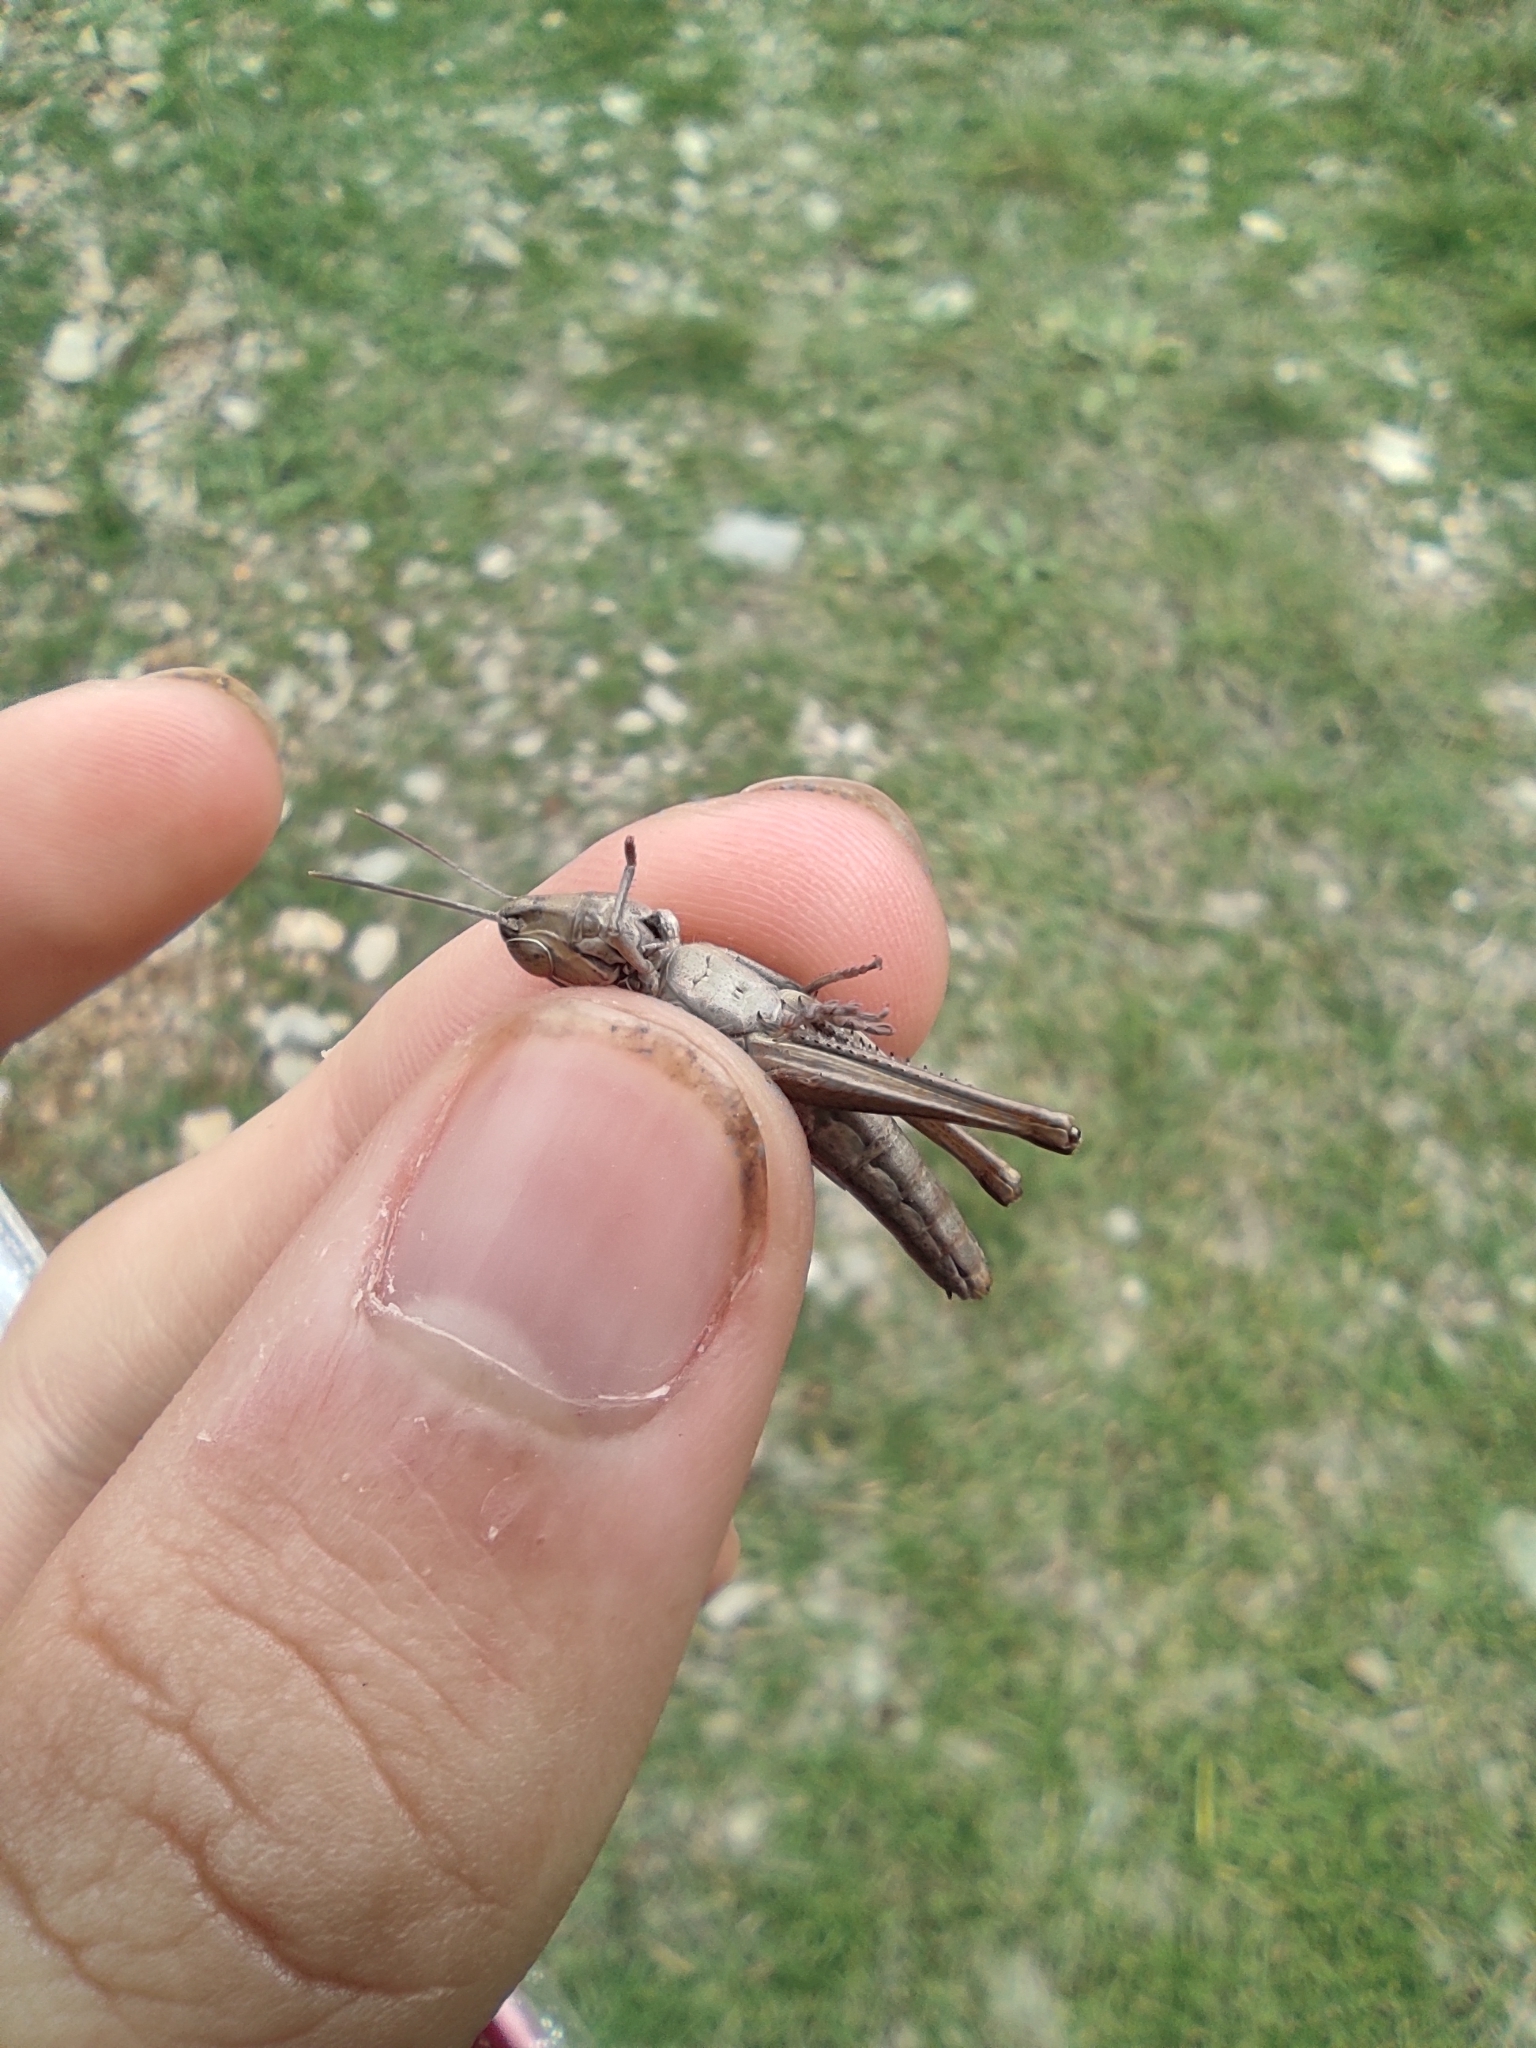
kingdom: Animalia
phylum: Arthropoda
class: Insecta
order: Orthoptera
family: Acrididae
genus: Euchorthippus
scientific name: Euchorthippus elegantulus
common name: Elegant straw grasshopper
